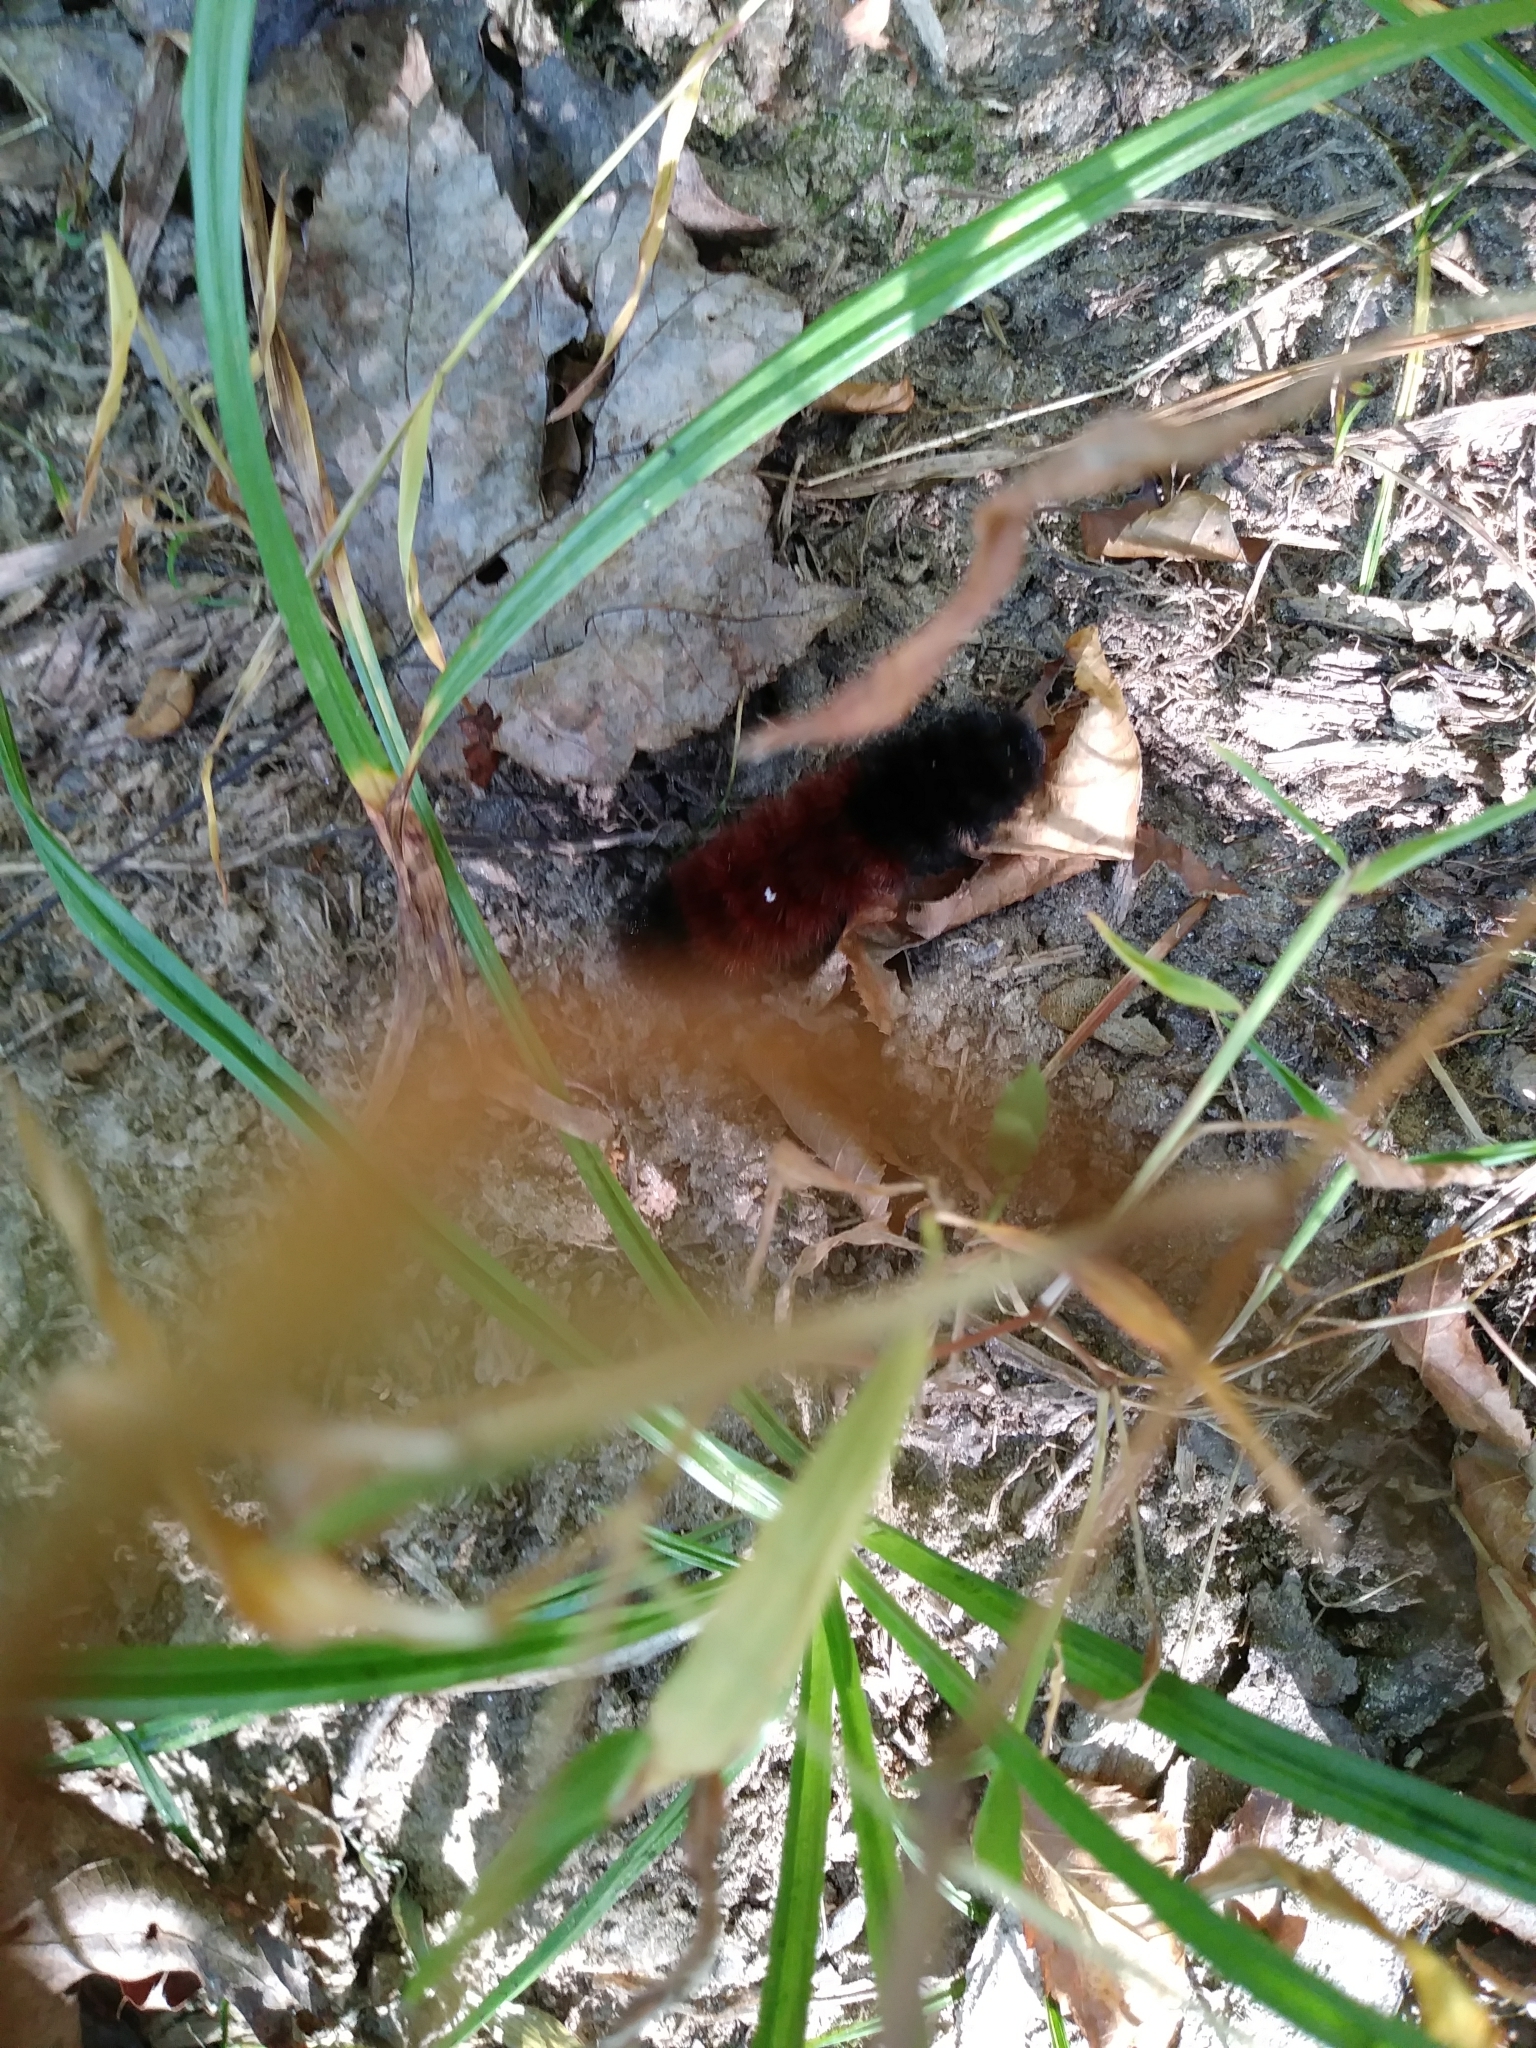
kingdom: Animalia
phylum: Arthropoda
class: Insecta
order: Lepidoptera
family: Erebidae
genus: Pyrrharctia
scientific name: Pyrrharctia isabella
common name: Isabella tiger moth
